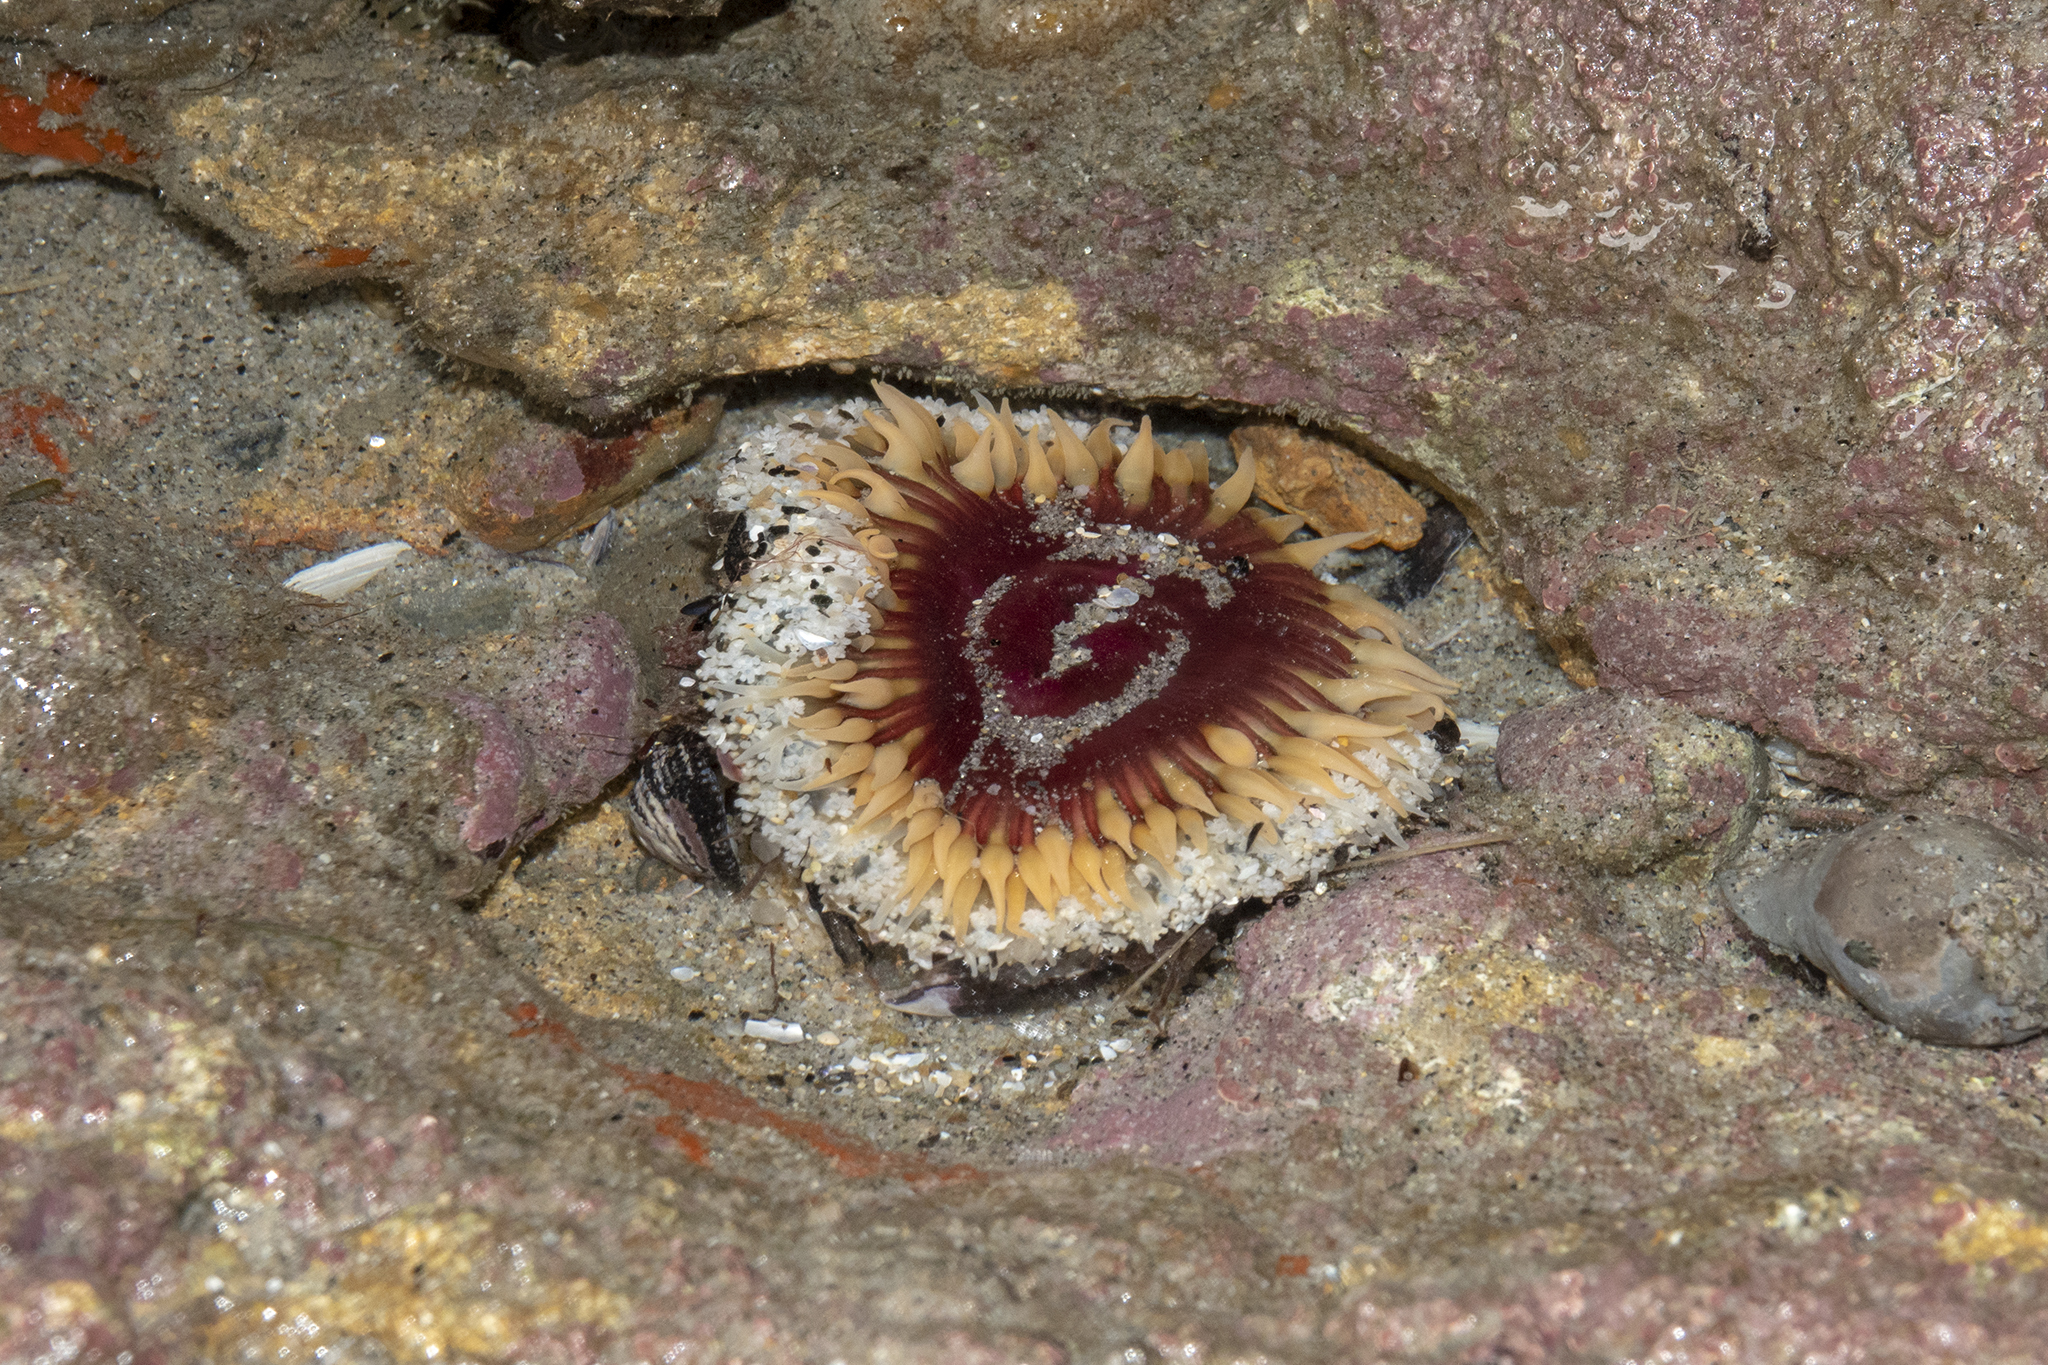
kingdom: Animalia
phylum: Cnidaria
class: Anthozoa
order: Actiniaria
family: Actiniidae
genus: Oulactis
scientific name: Oulactis magna
